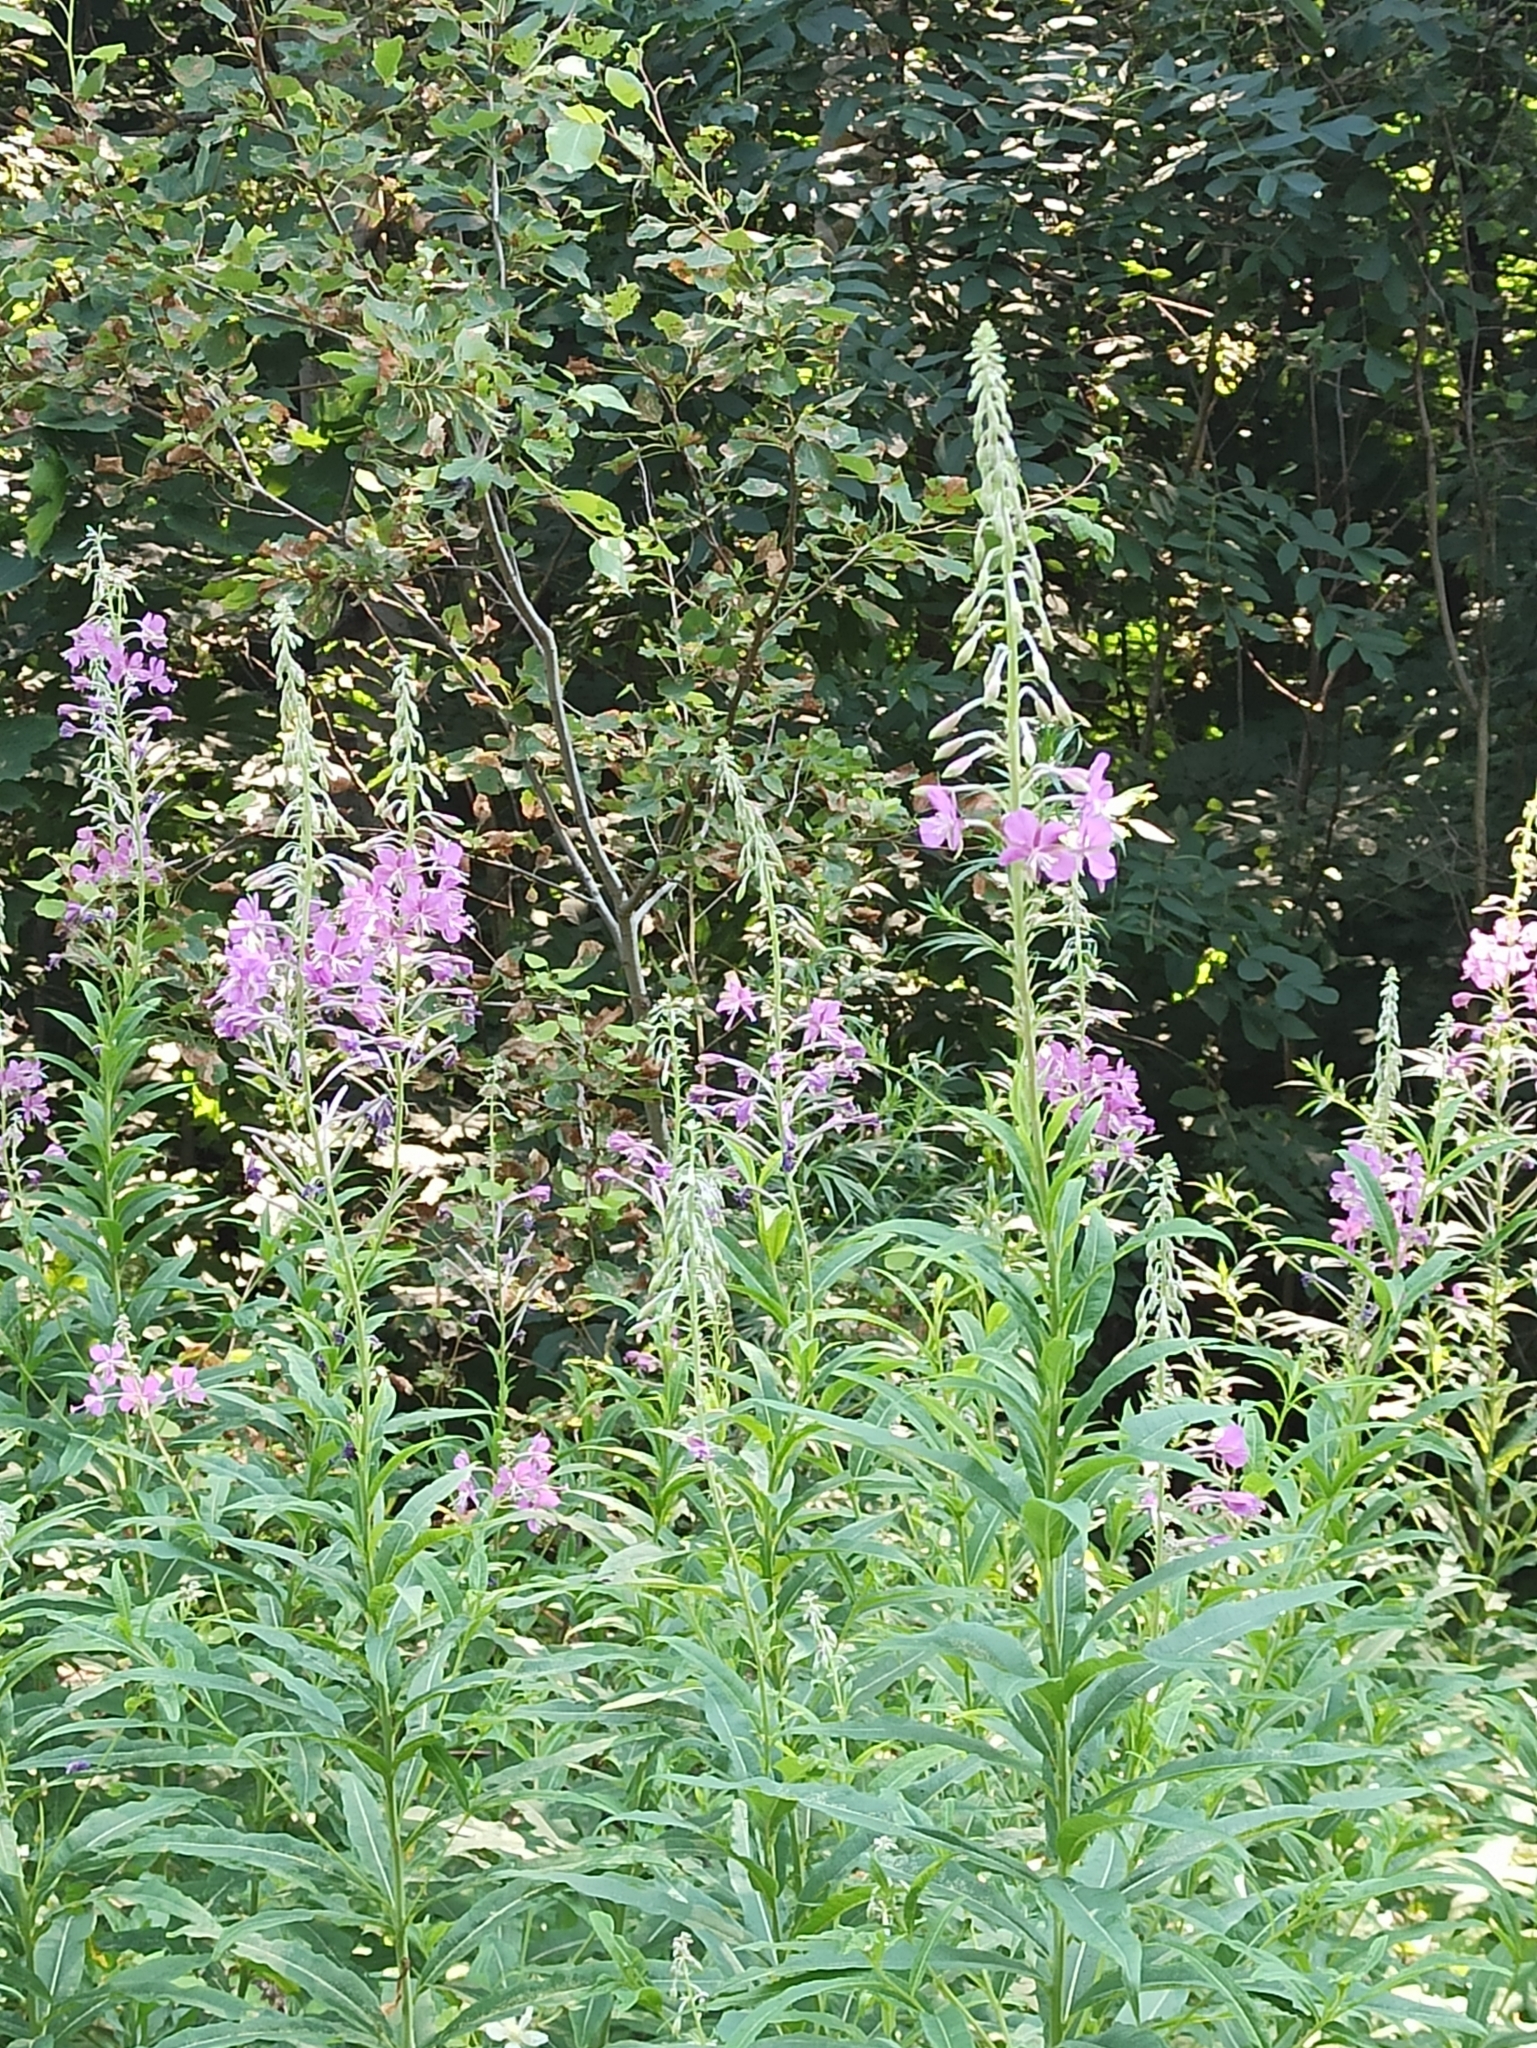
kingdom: Plantae
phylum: Tracheophyta
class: Magnoliopsida
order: Myrtales
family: Onagraceae
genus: Chamaenerion
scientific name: Chamaenerion angustifolium
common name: Fireweed
